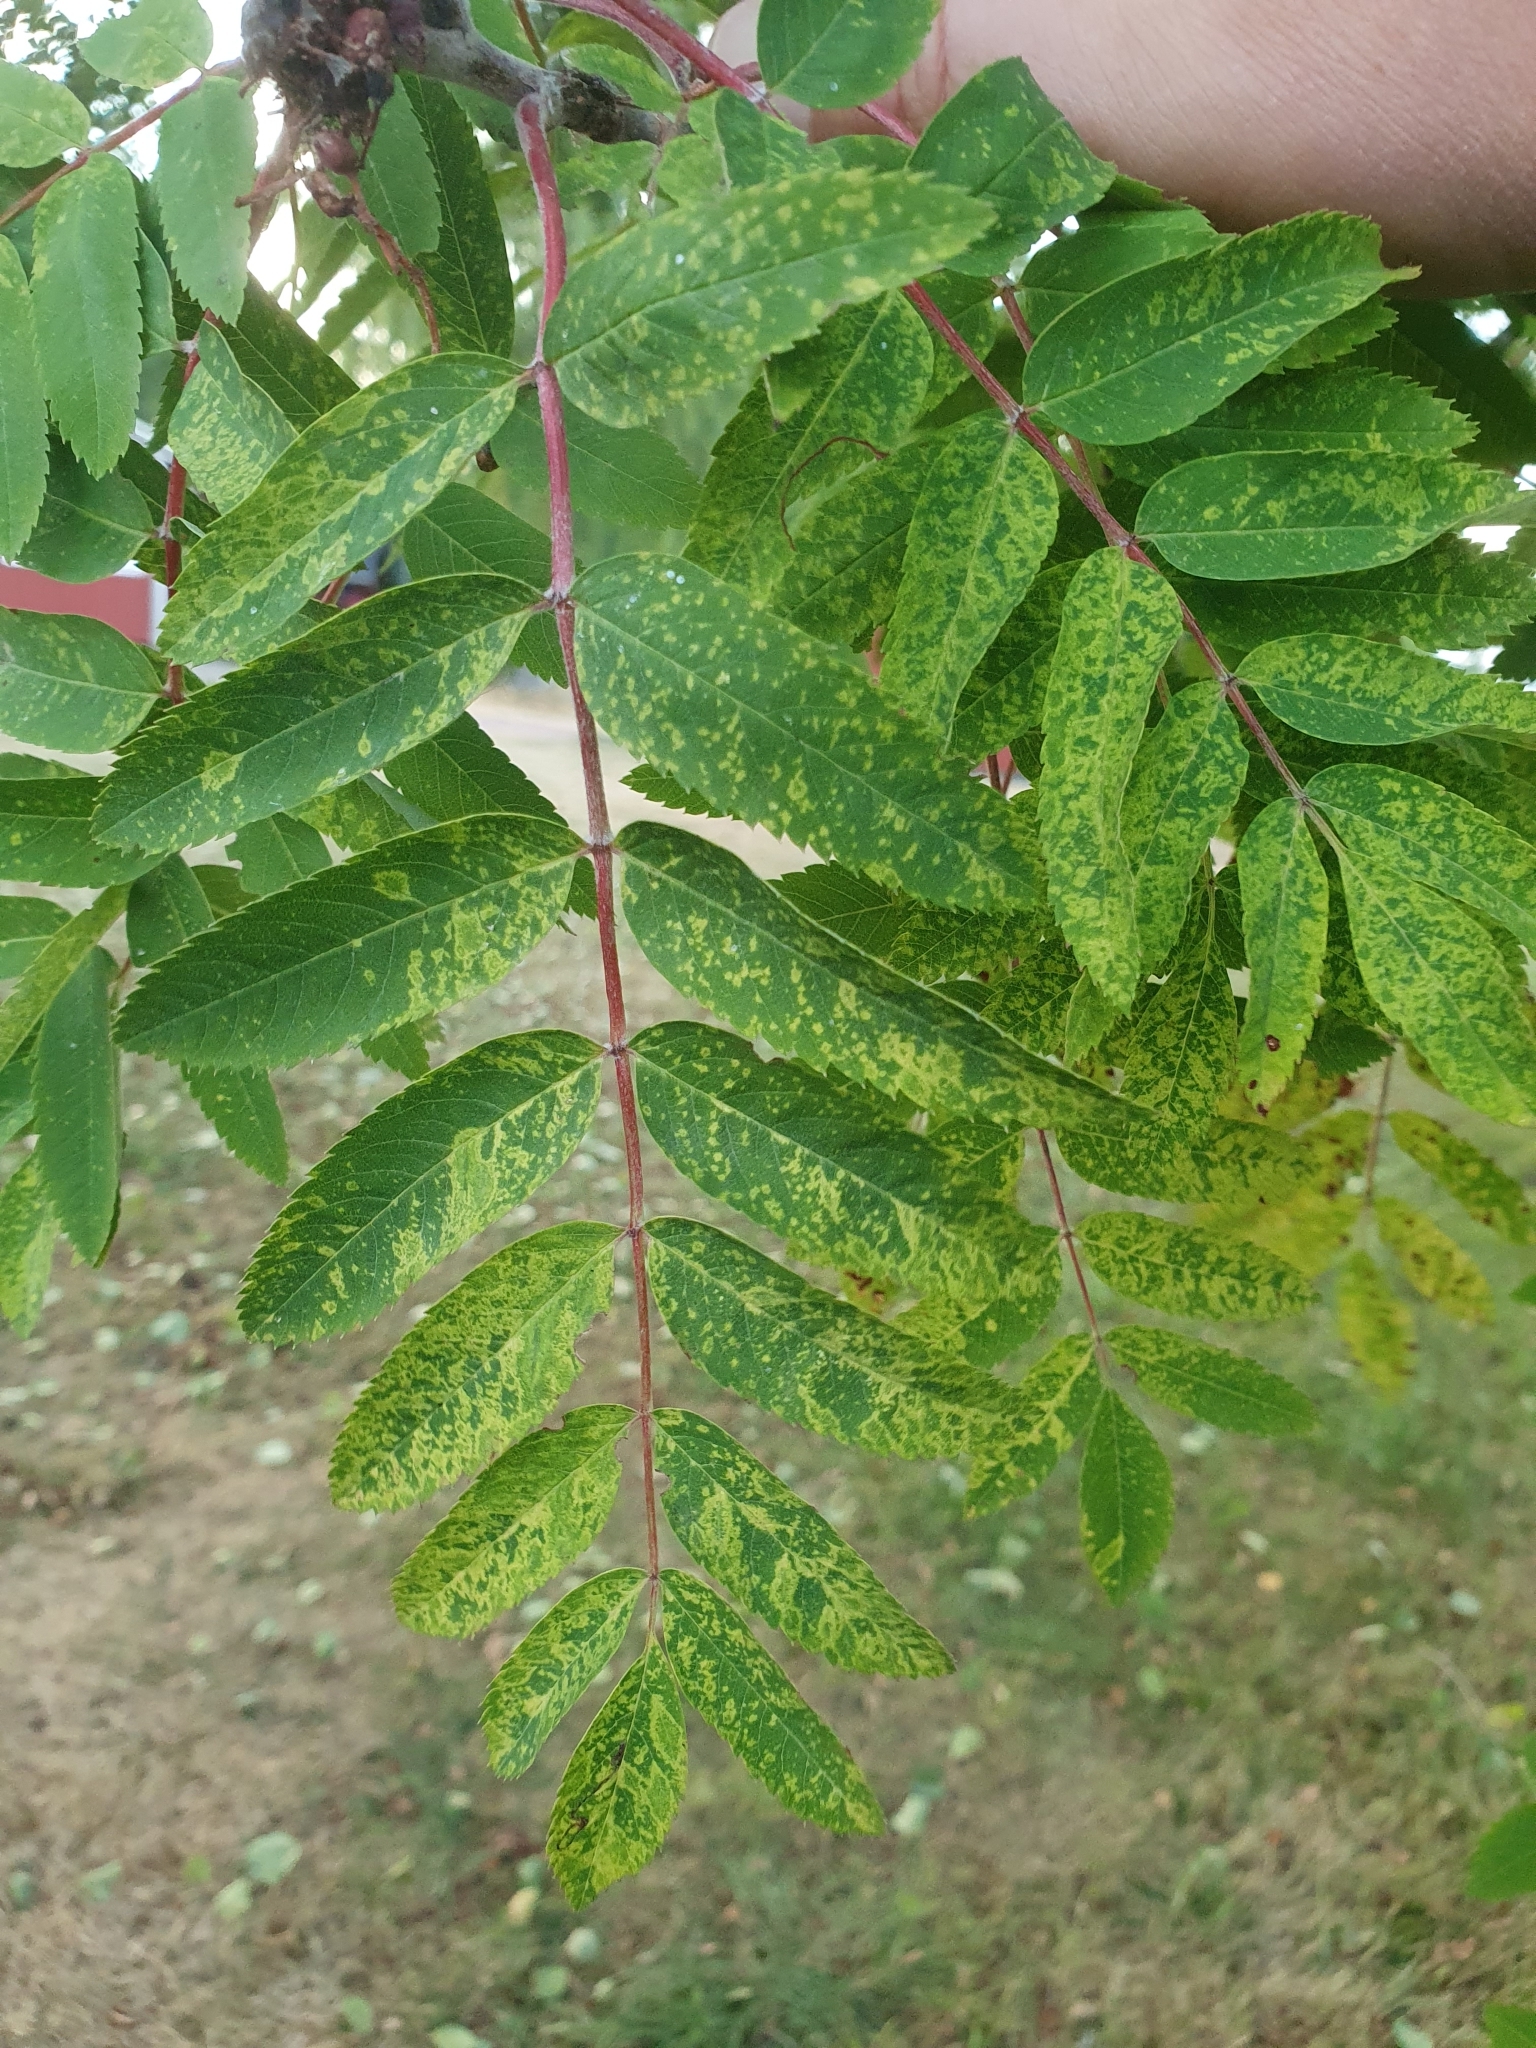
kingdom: Viruses
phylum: Negarnaviricota
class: Ellioviricetes
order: Bunyavirales
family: Fimoviridae
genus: Emaravirus
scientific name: Emaravirus sorbi
